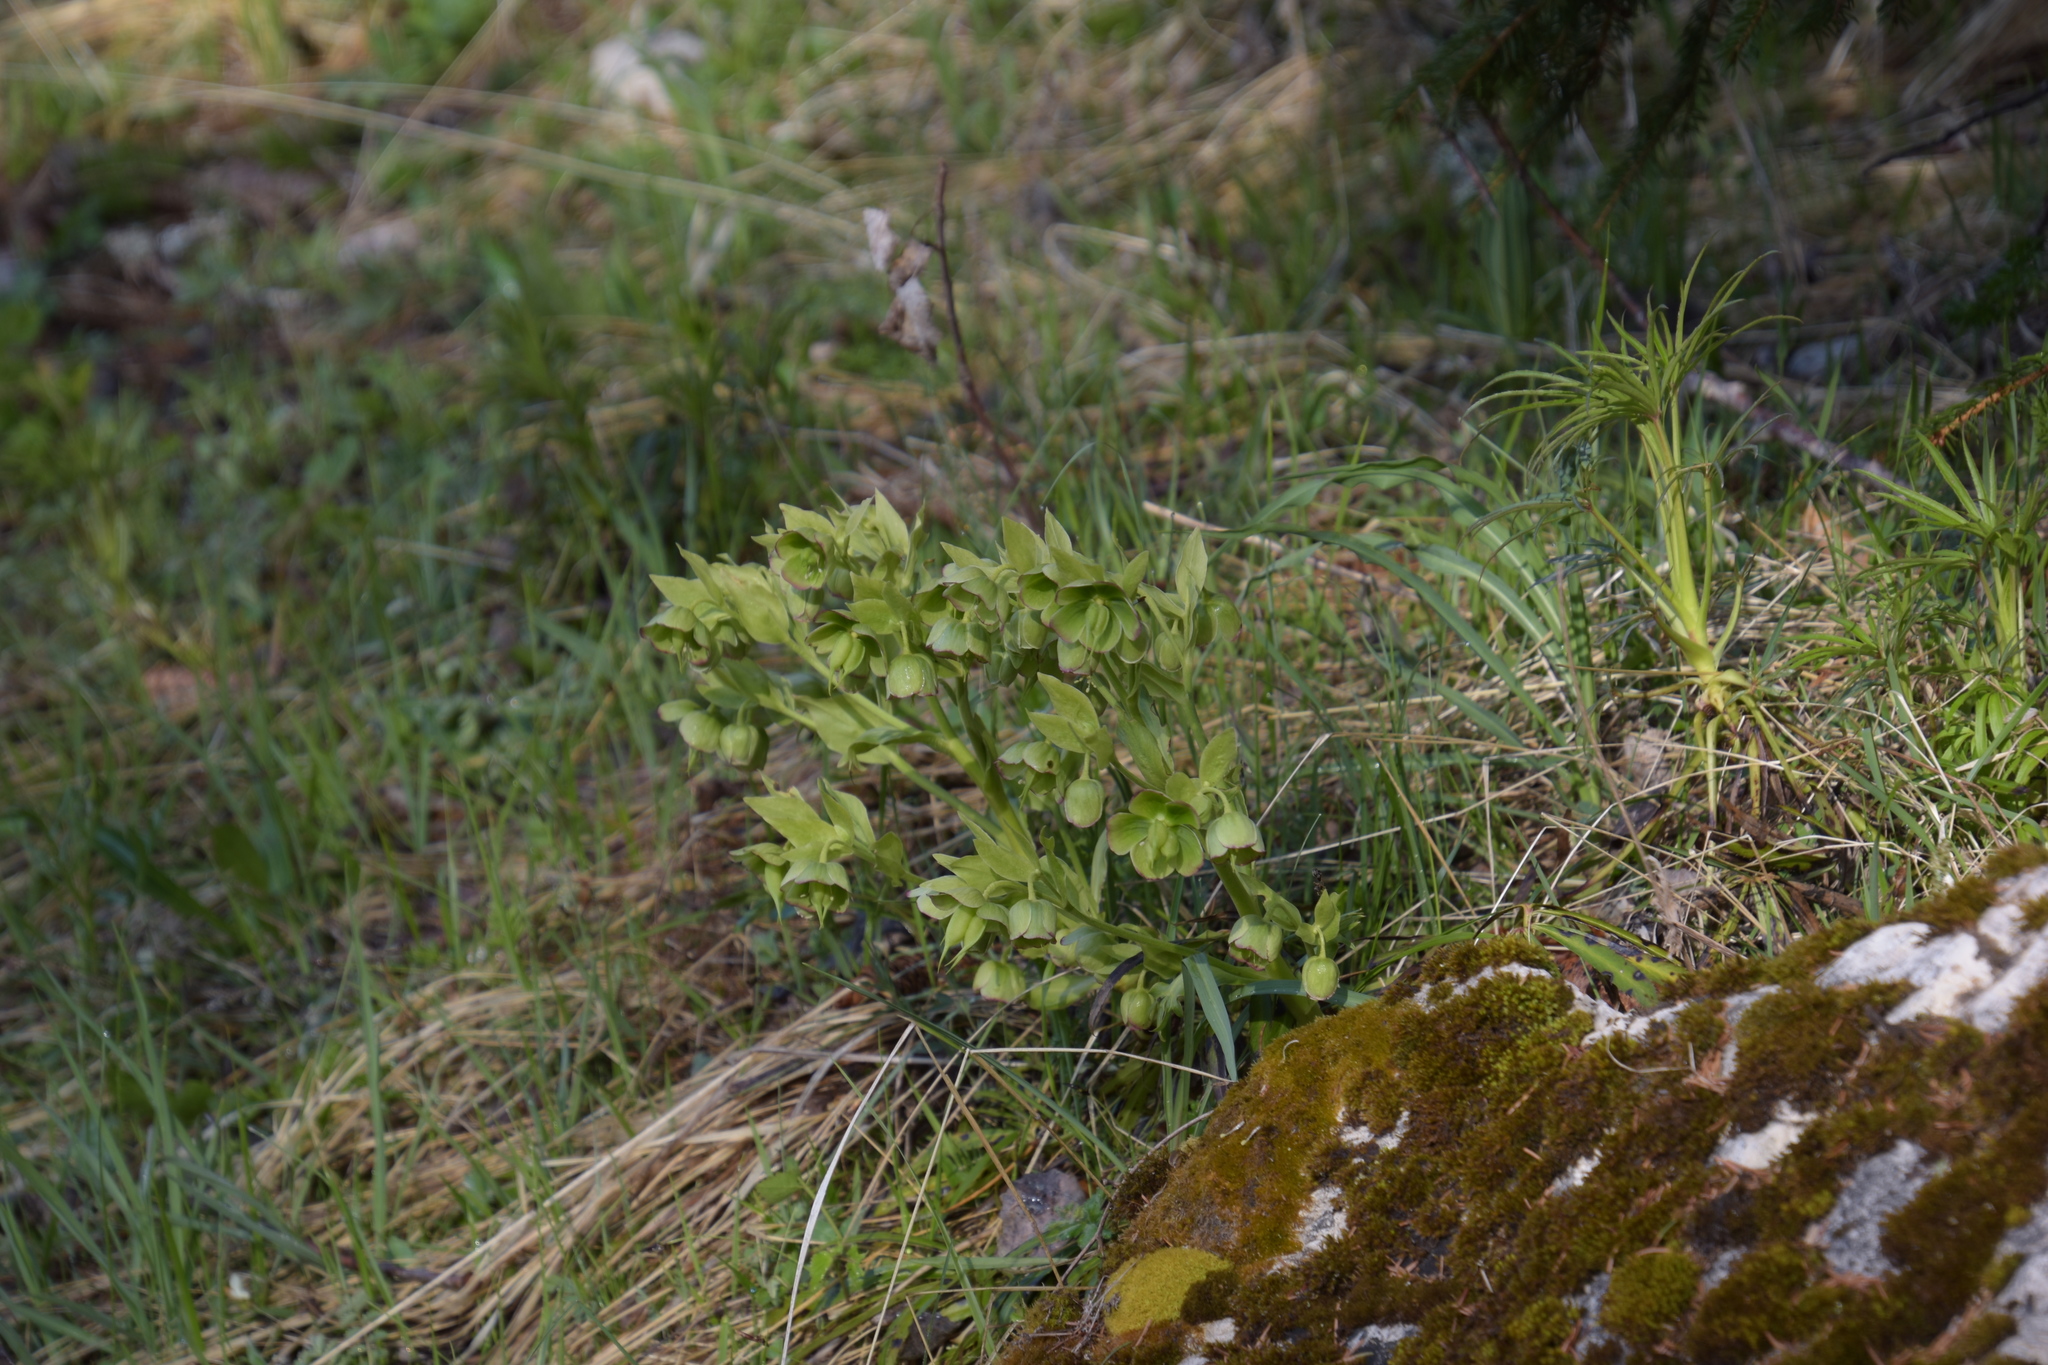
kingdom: Plantae
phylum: Tracheophyta
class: Magnoliopsida
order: Ranunculales
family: Ranunculaceae
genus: Helleborus
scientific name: Helleborus foetidus
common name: Stinking hellebore
